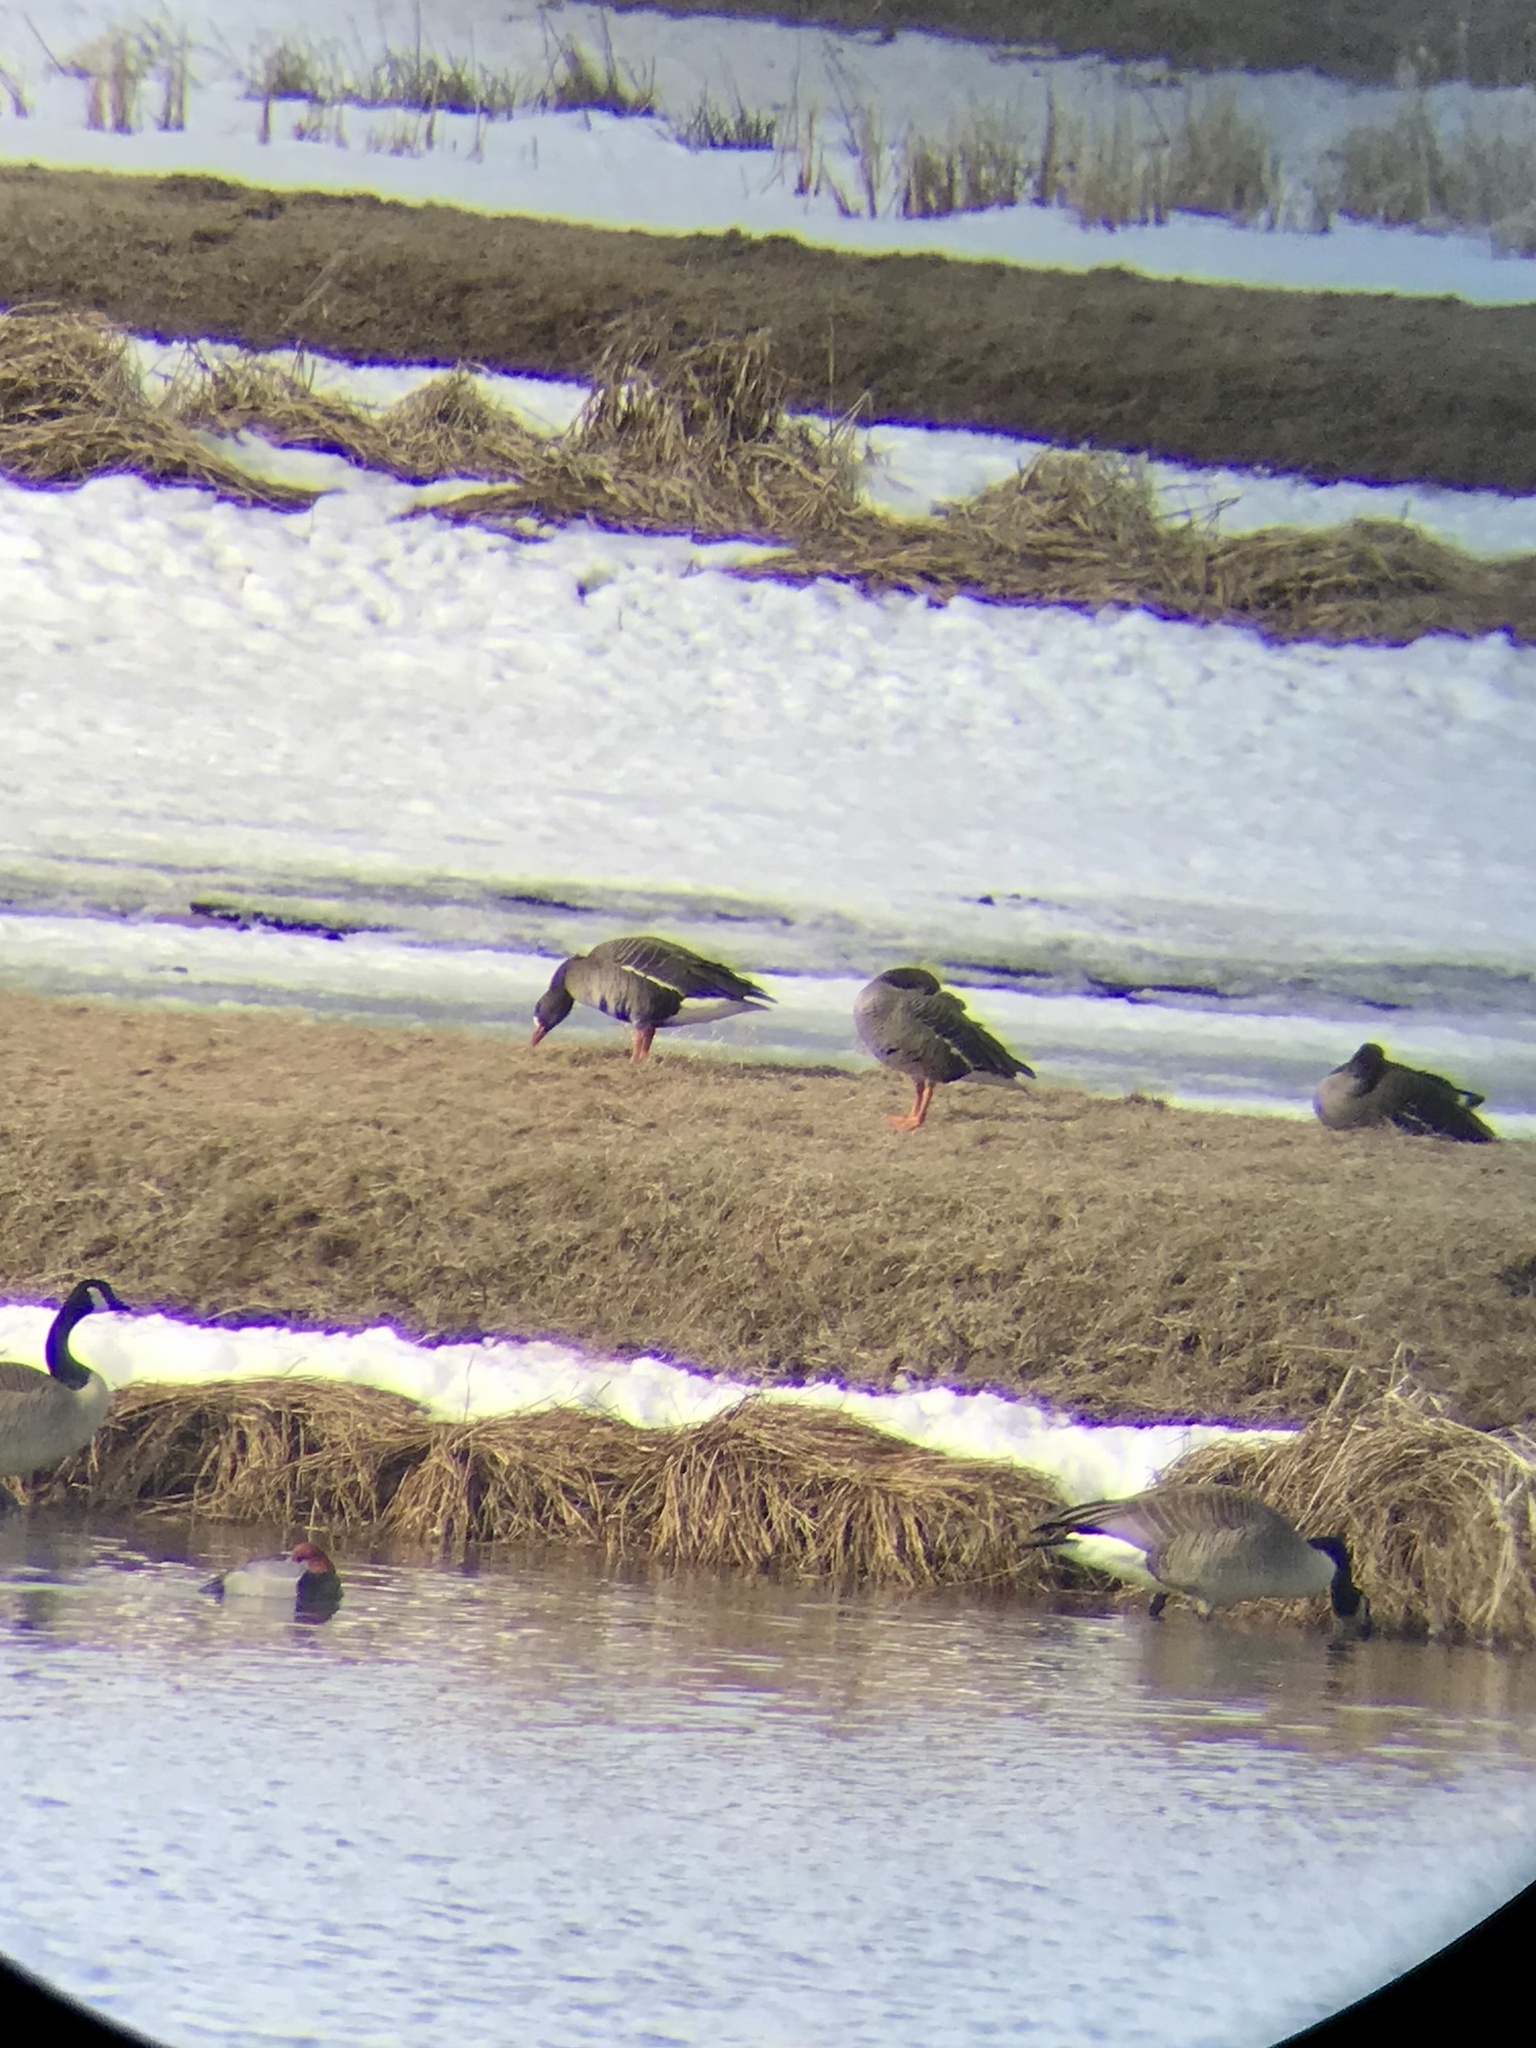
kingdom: Animalia
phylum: Chordata
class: Aves
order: Anseriformes
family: Anatidae
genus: Anser
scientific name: Anser albifrons
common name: Greater white-fronted goose
